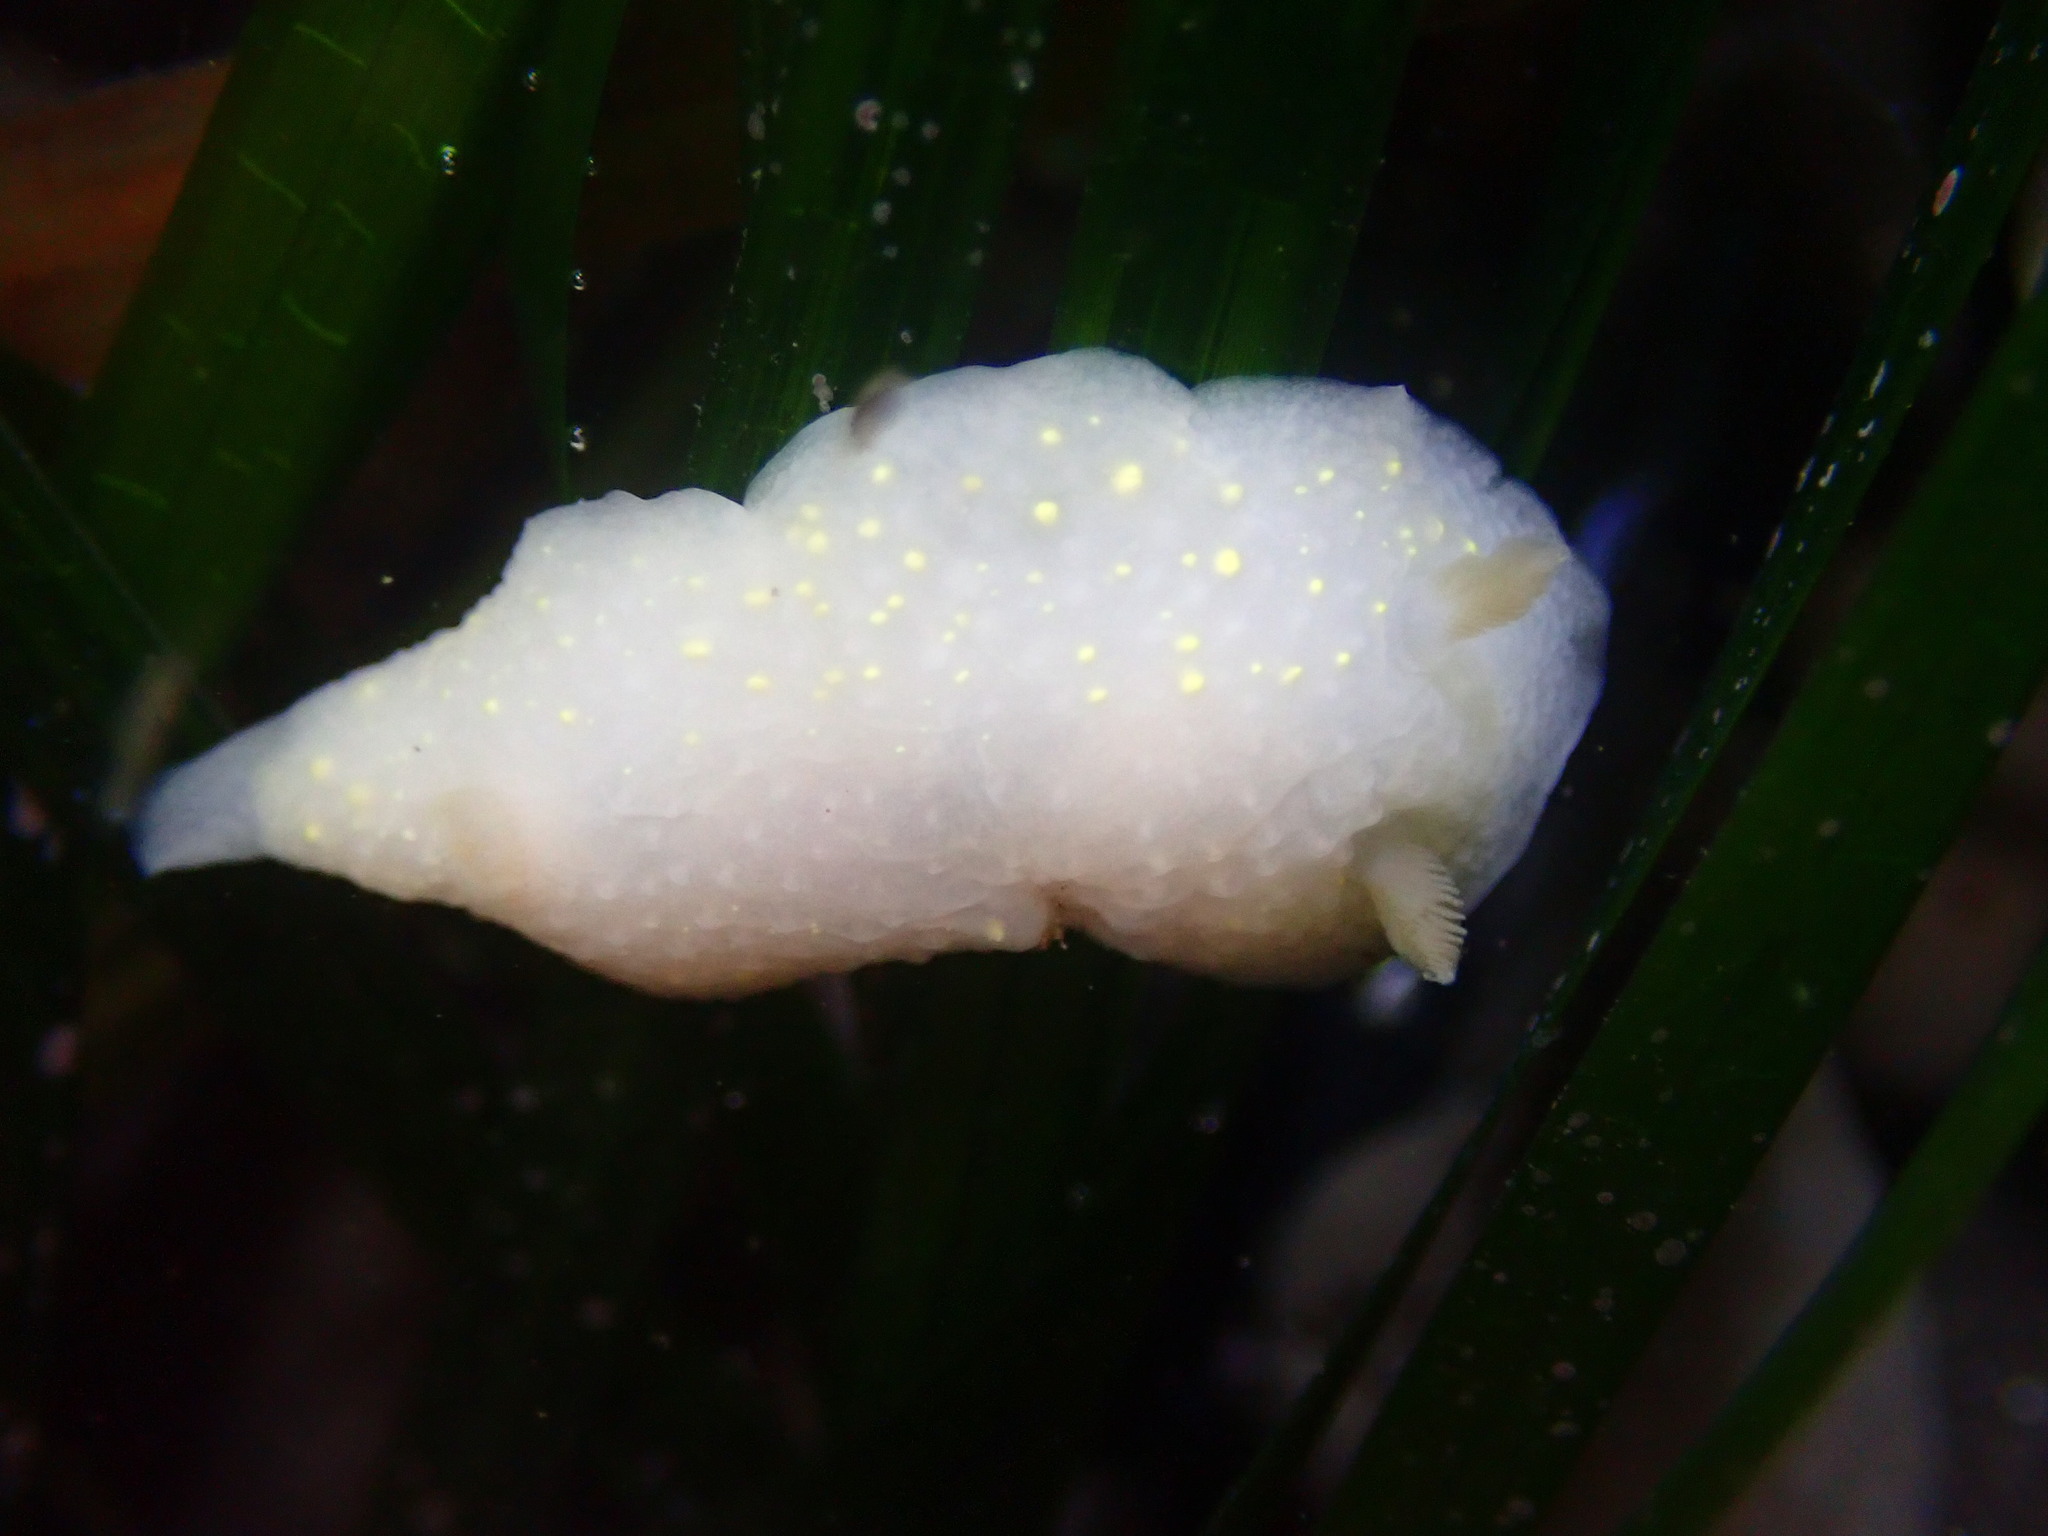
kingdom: Animalia
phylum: Mollusca
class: Gastropoda
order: Nudibranchia
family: Cadlinidae
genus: Cadlina
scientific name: Cadlina modesta
